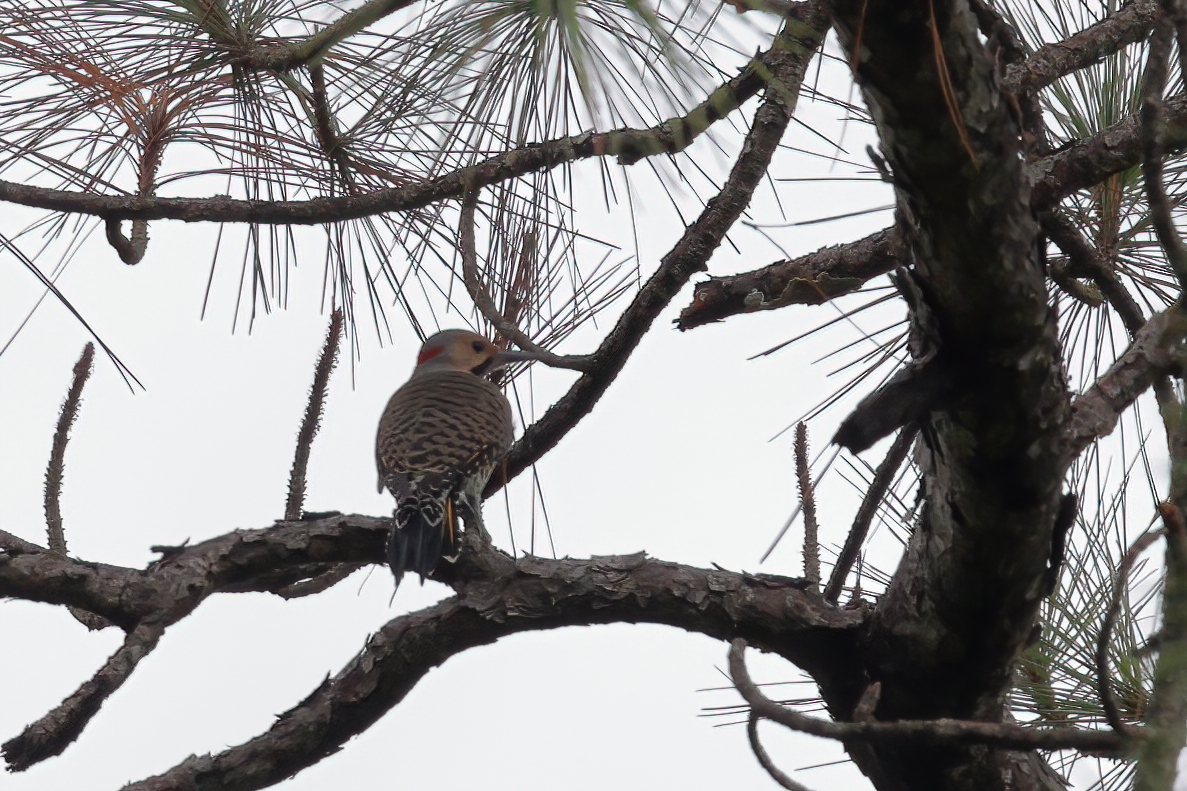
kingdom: Animalia
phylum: Chordata
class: Aves
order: Piciformes
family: Picidae
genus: Colaptes
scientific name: Colaptes auratus
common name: Northern flicker
